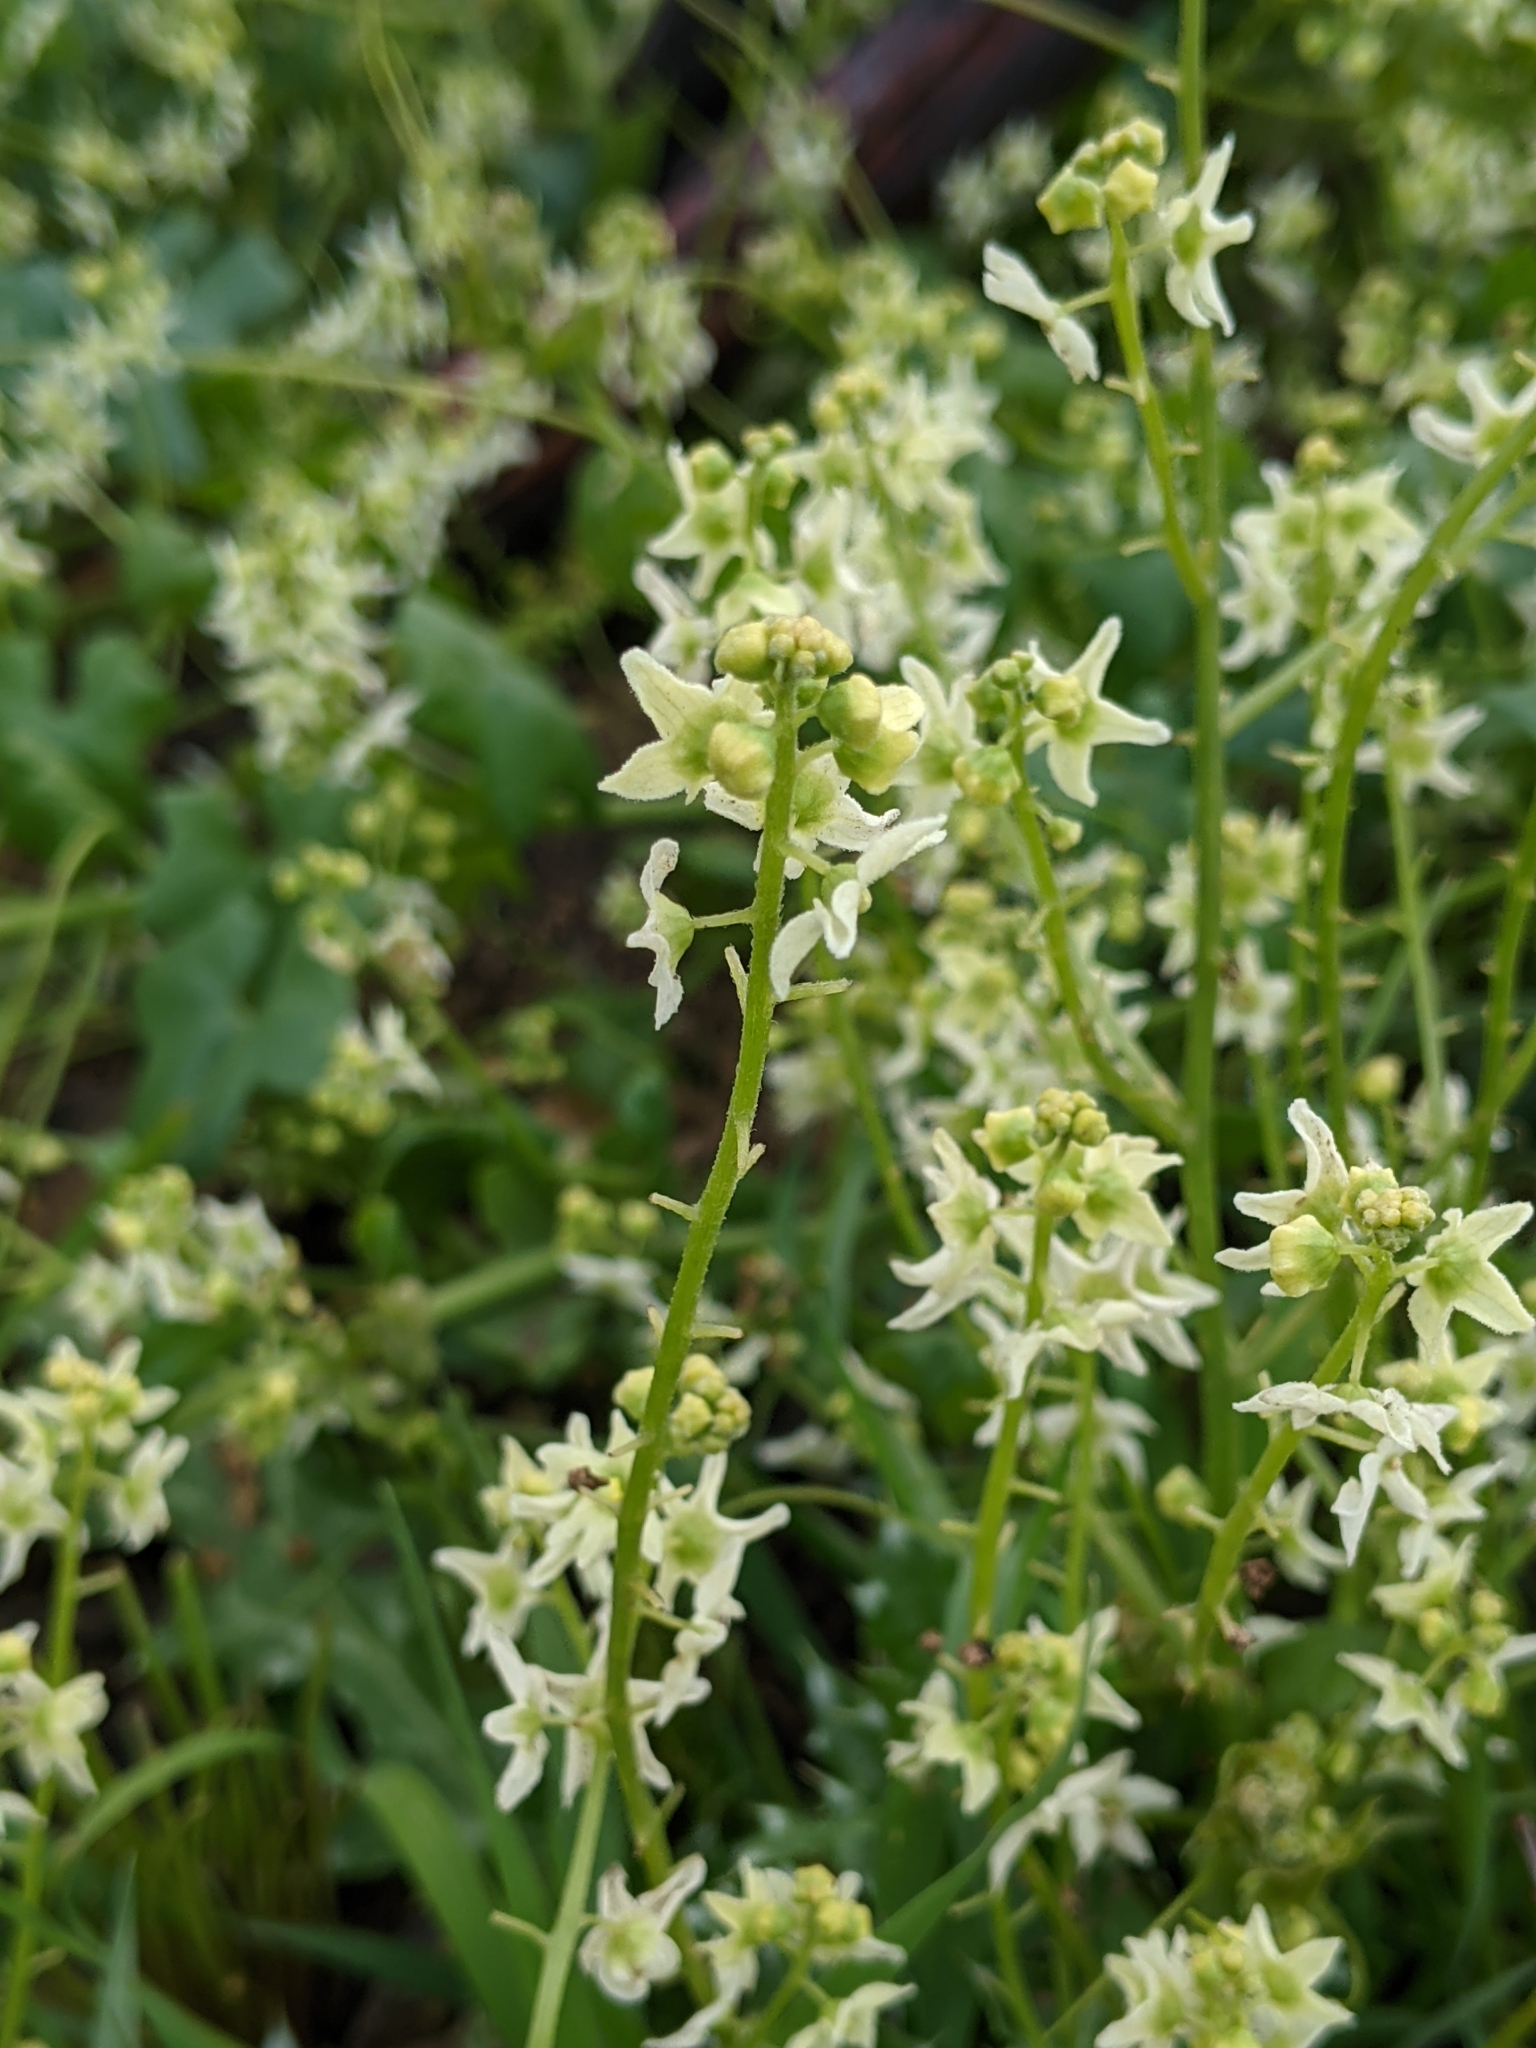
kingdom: Plantae
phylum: Tracheophyta
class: Magnoliopsida
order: Cucurbitales
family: Cucurbitaceae
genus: Marah
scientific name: Marah fabacea
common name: California manroot
